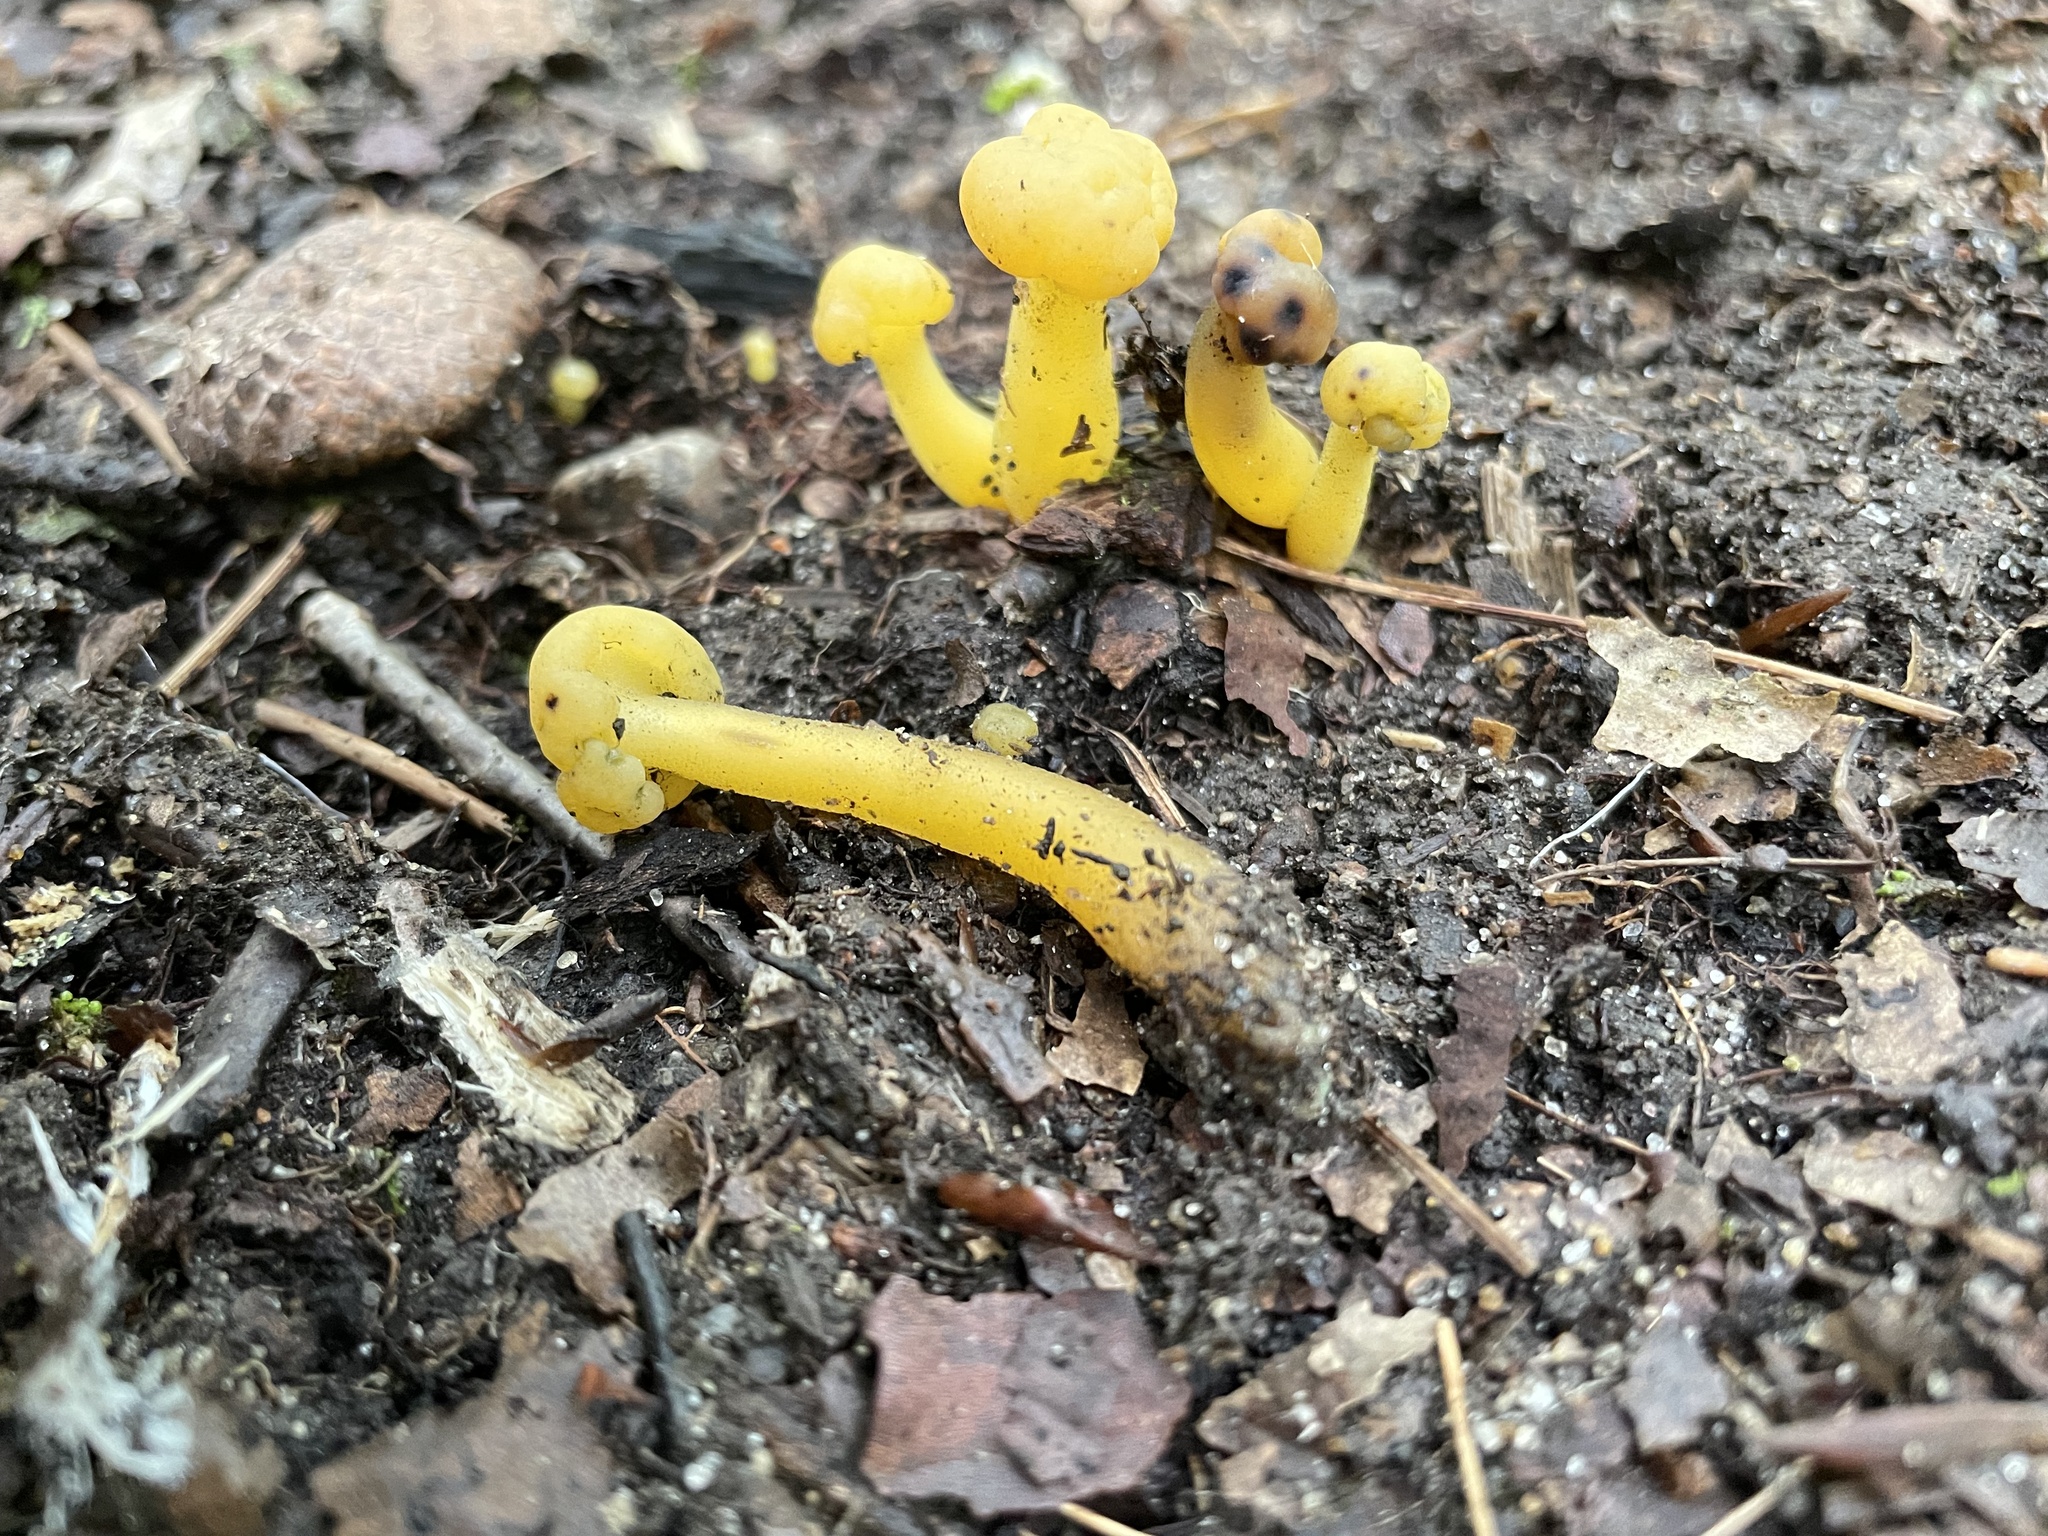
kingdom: Fungi
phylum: Ascomycota
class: Leotiomycetes
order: Leotiales
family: Leotiaceae
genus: Leotia
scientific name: Leotia lubrica
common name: Jellybaby
